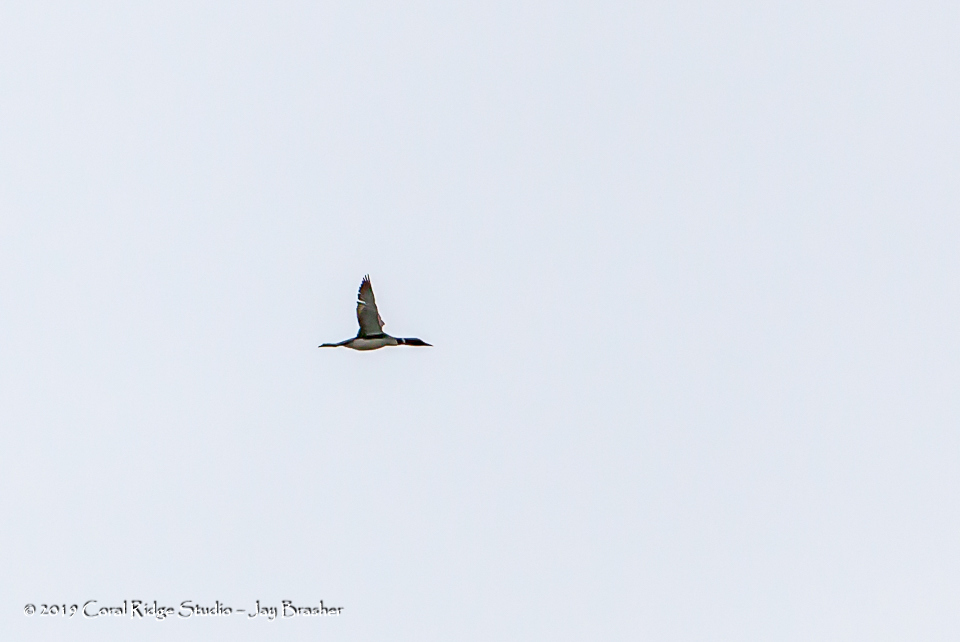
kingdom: Animalia
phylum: Chordata
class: Aves
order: Gaviiformes
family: Gaviidae
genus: Gavia
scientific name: Gavia immer
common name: Common loon
